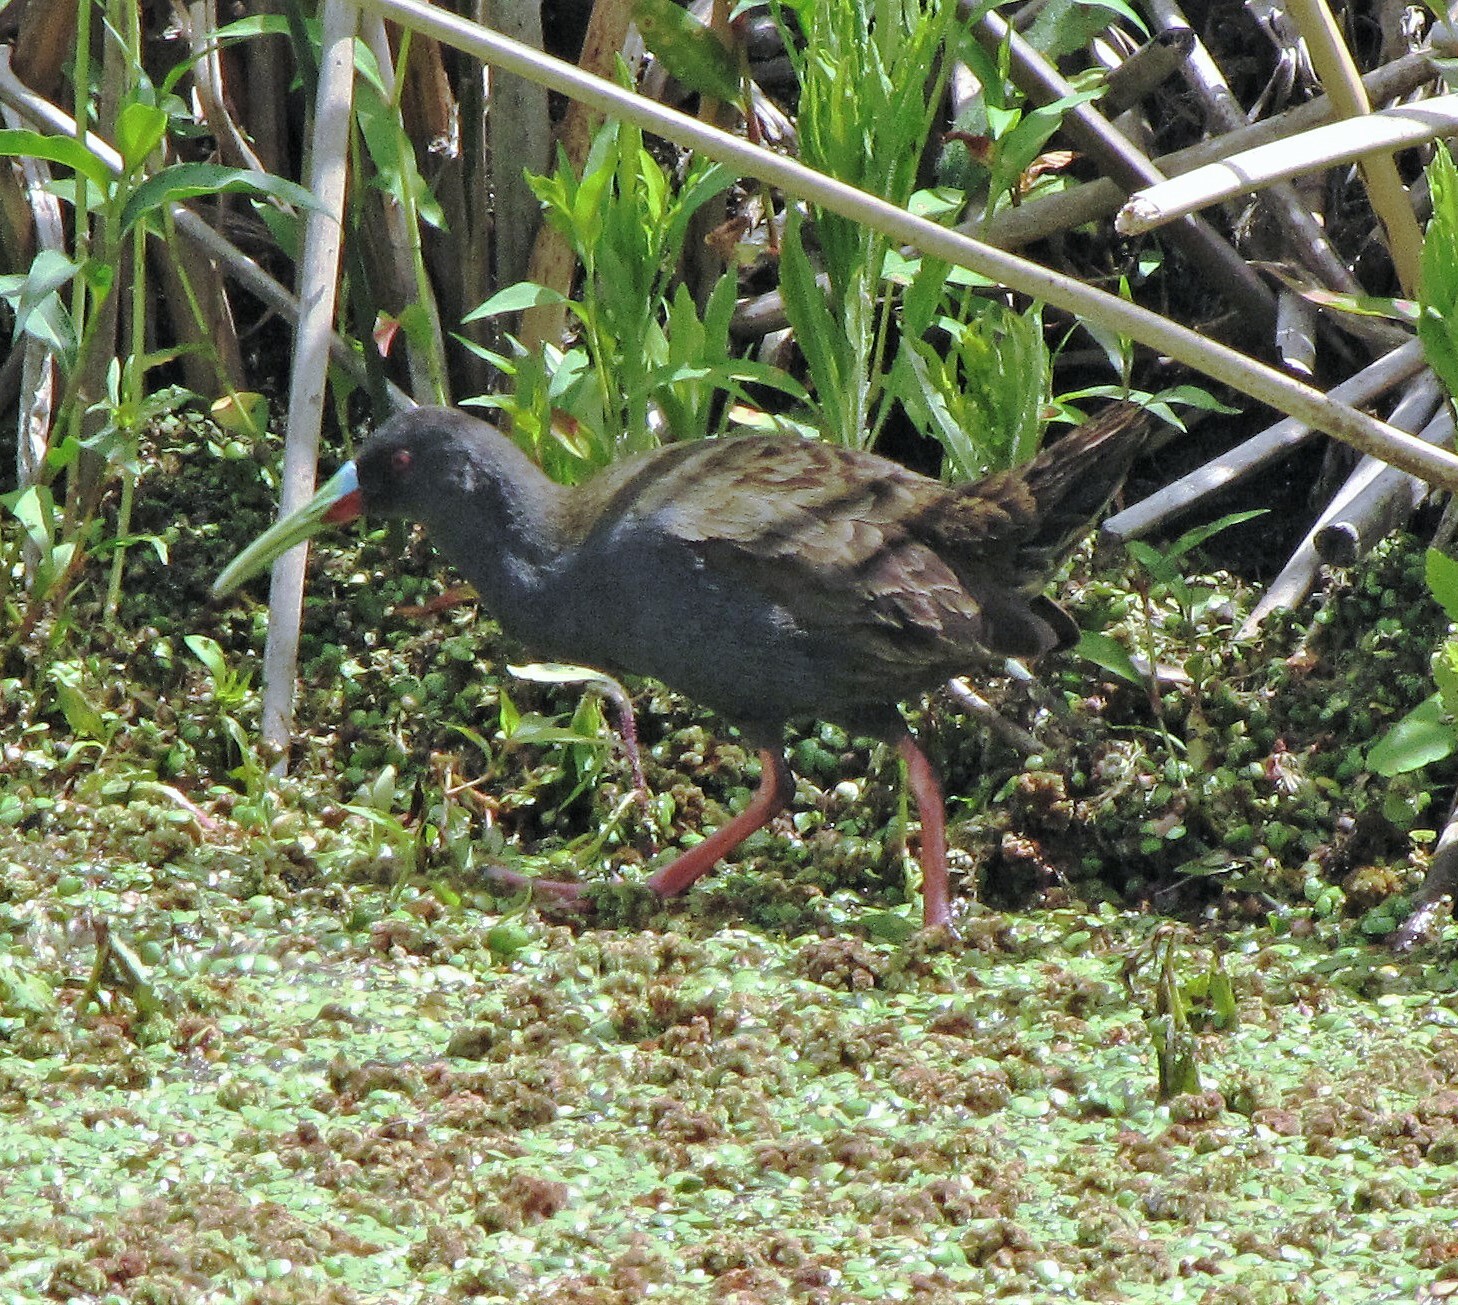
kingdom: Animalia
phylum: Chordata
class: Aves
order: Gruiformes
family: Rallidae
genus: Pardirallus
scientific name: Pardirallus sanguinolentus
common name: Plumbeous rail
